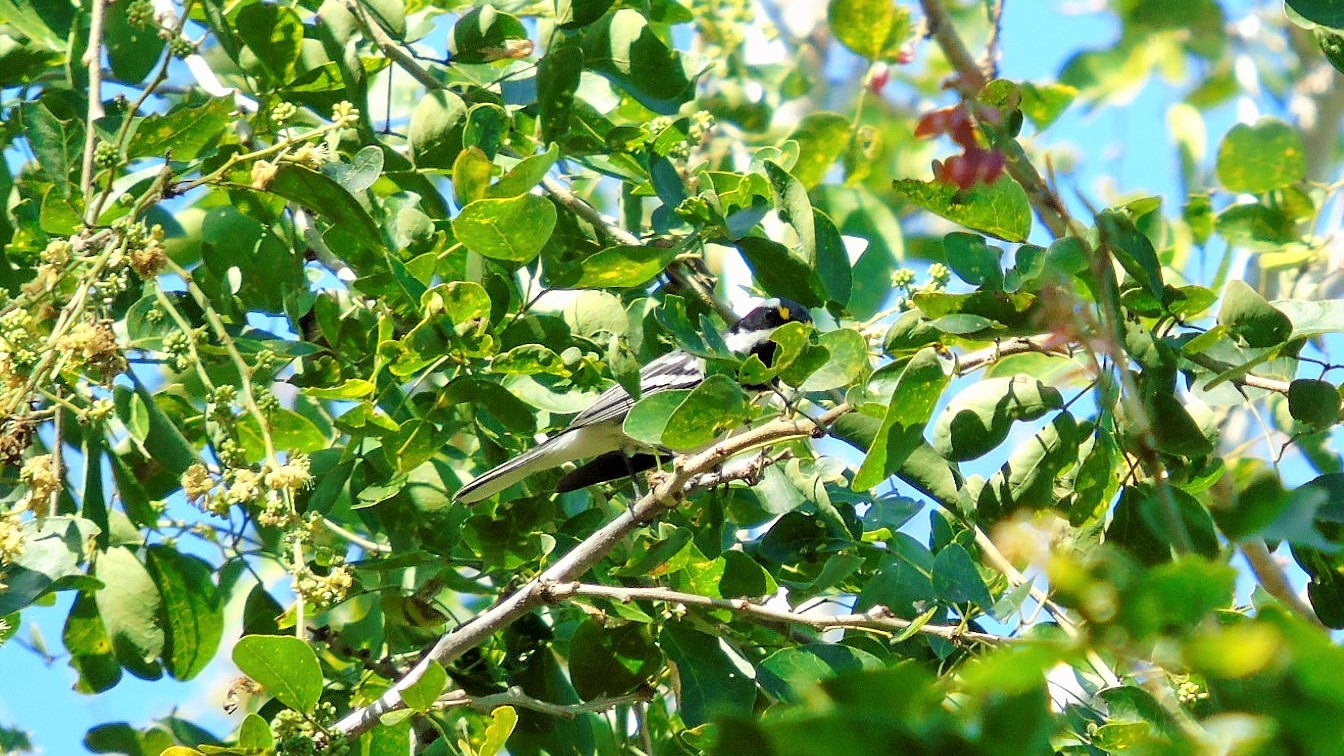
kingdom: Animalia
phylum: Chordata
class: Aves
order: Passeriformes
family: Parulidae
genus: Setophaga
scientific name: Setophaga nigrescens
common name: Black-throated gray warbler
